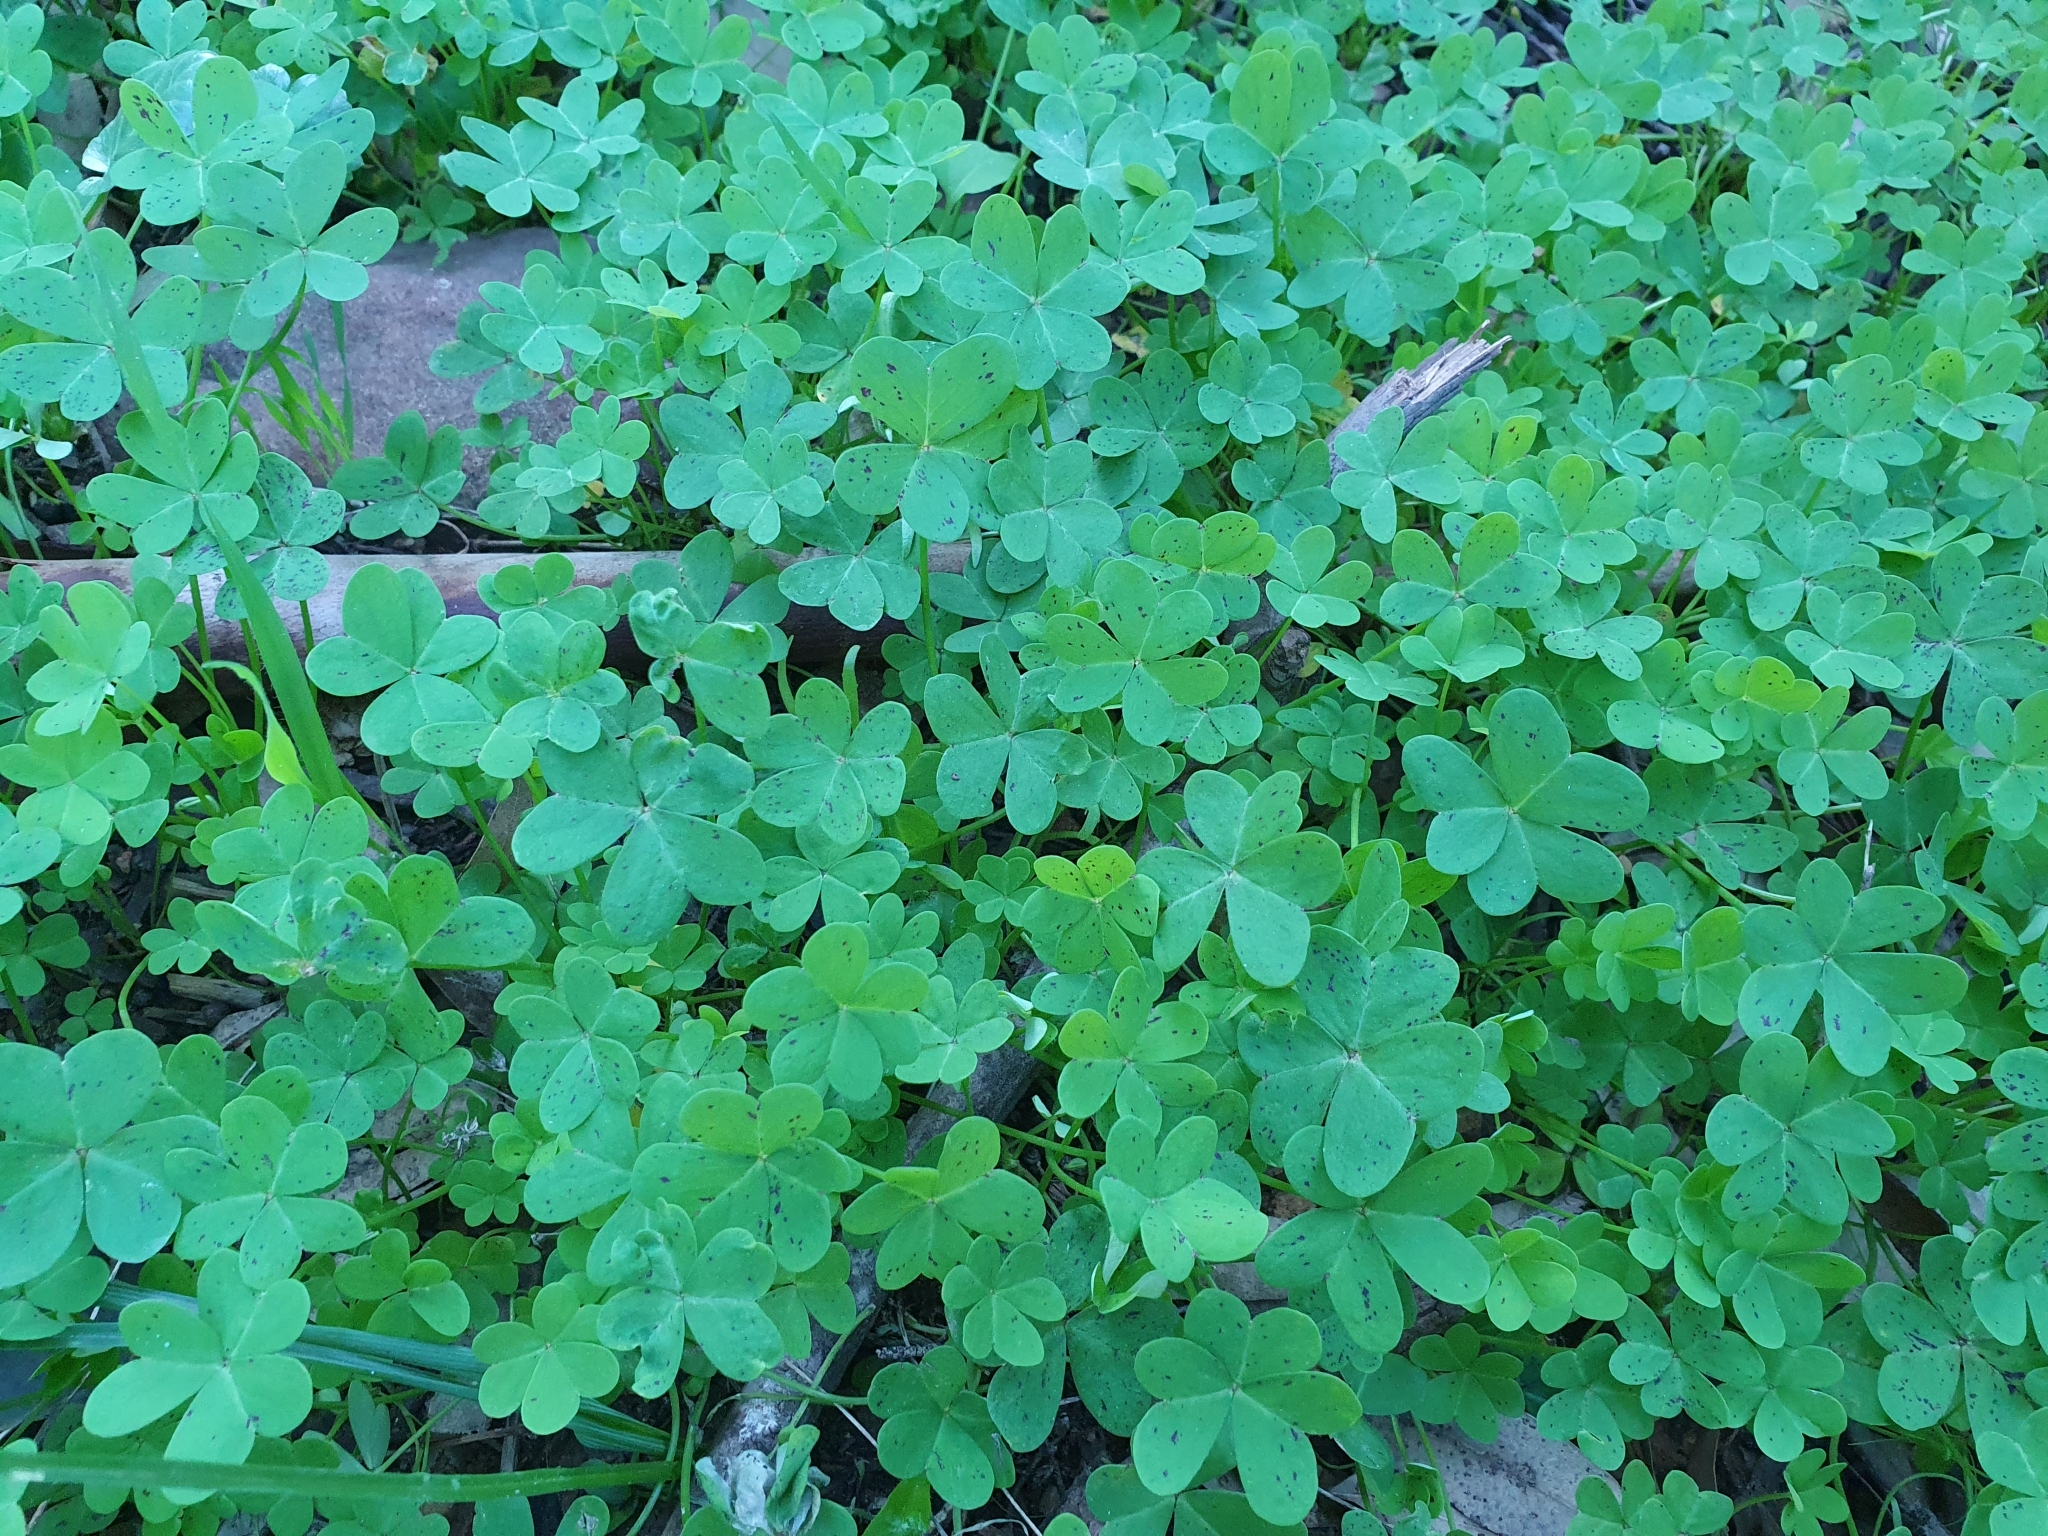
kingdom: Plantae
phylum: Tracheophyta
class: Magnoliopsida
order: Oxalidales
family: Oxalidaceae
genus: Oxalis
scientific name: Oxalis pes-caprae
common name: Bermuda-buttercup
